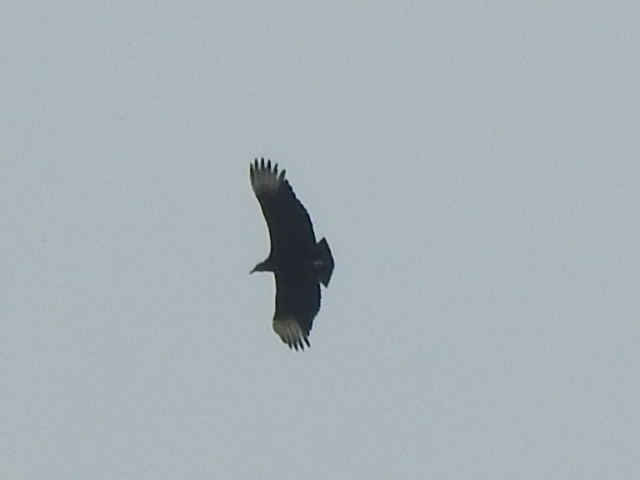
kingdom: Animalia
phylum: Chordata
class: Aves
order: Accipitriformes
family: Cathartidae
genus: Coragyps
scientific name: Coragyps atratus
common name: Black vulture
